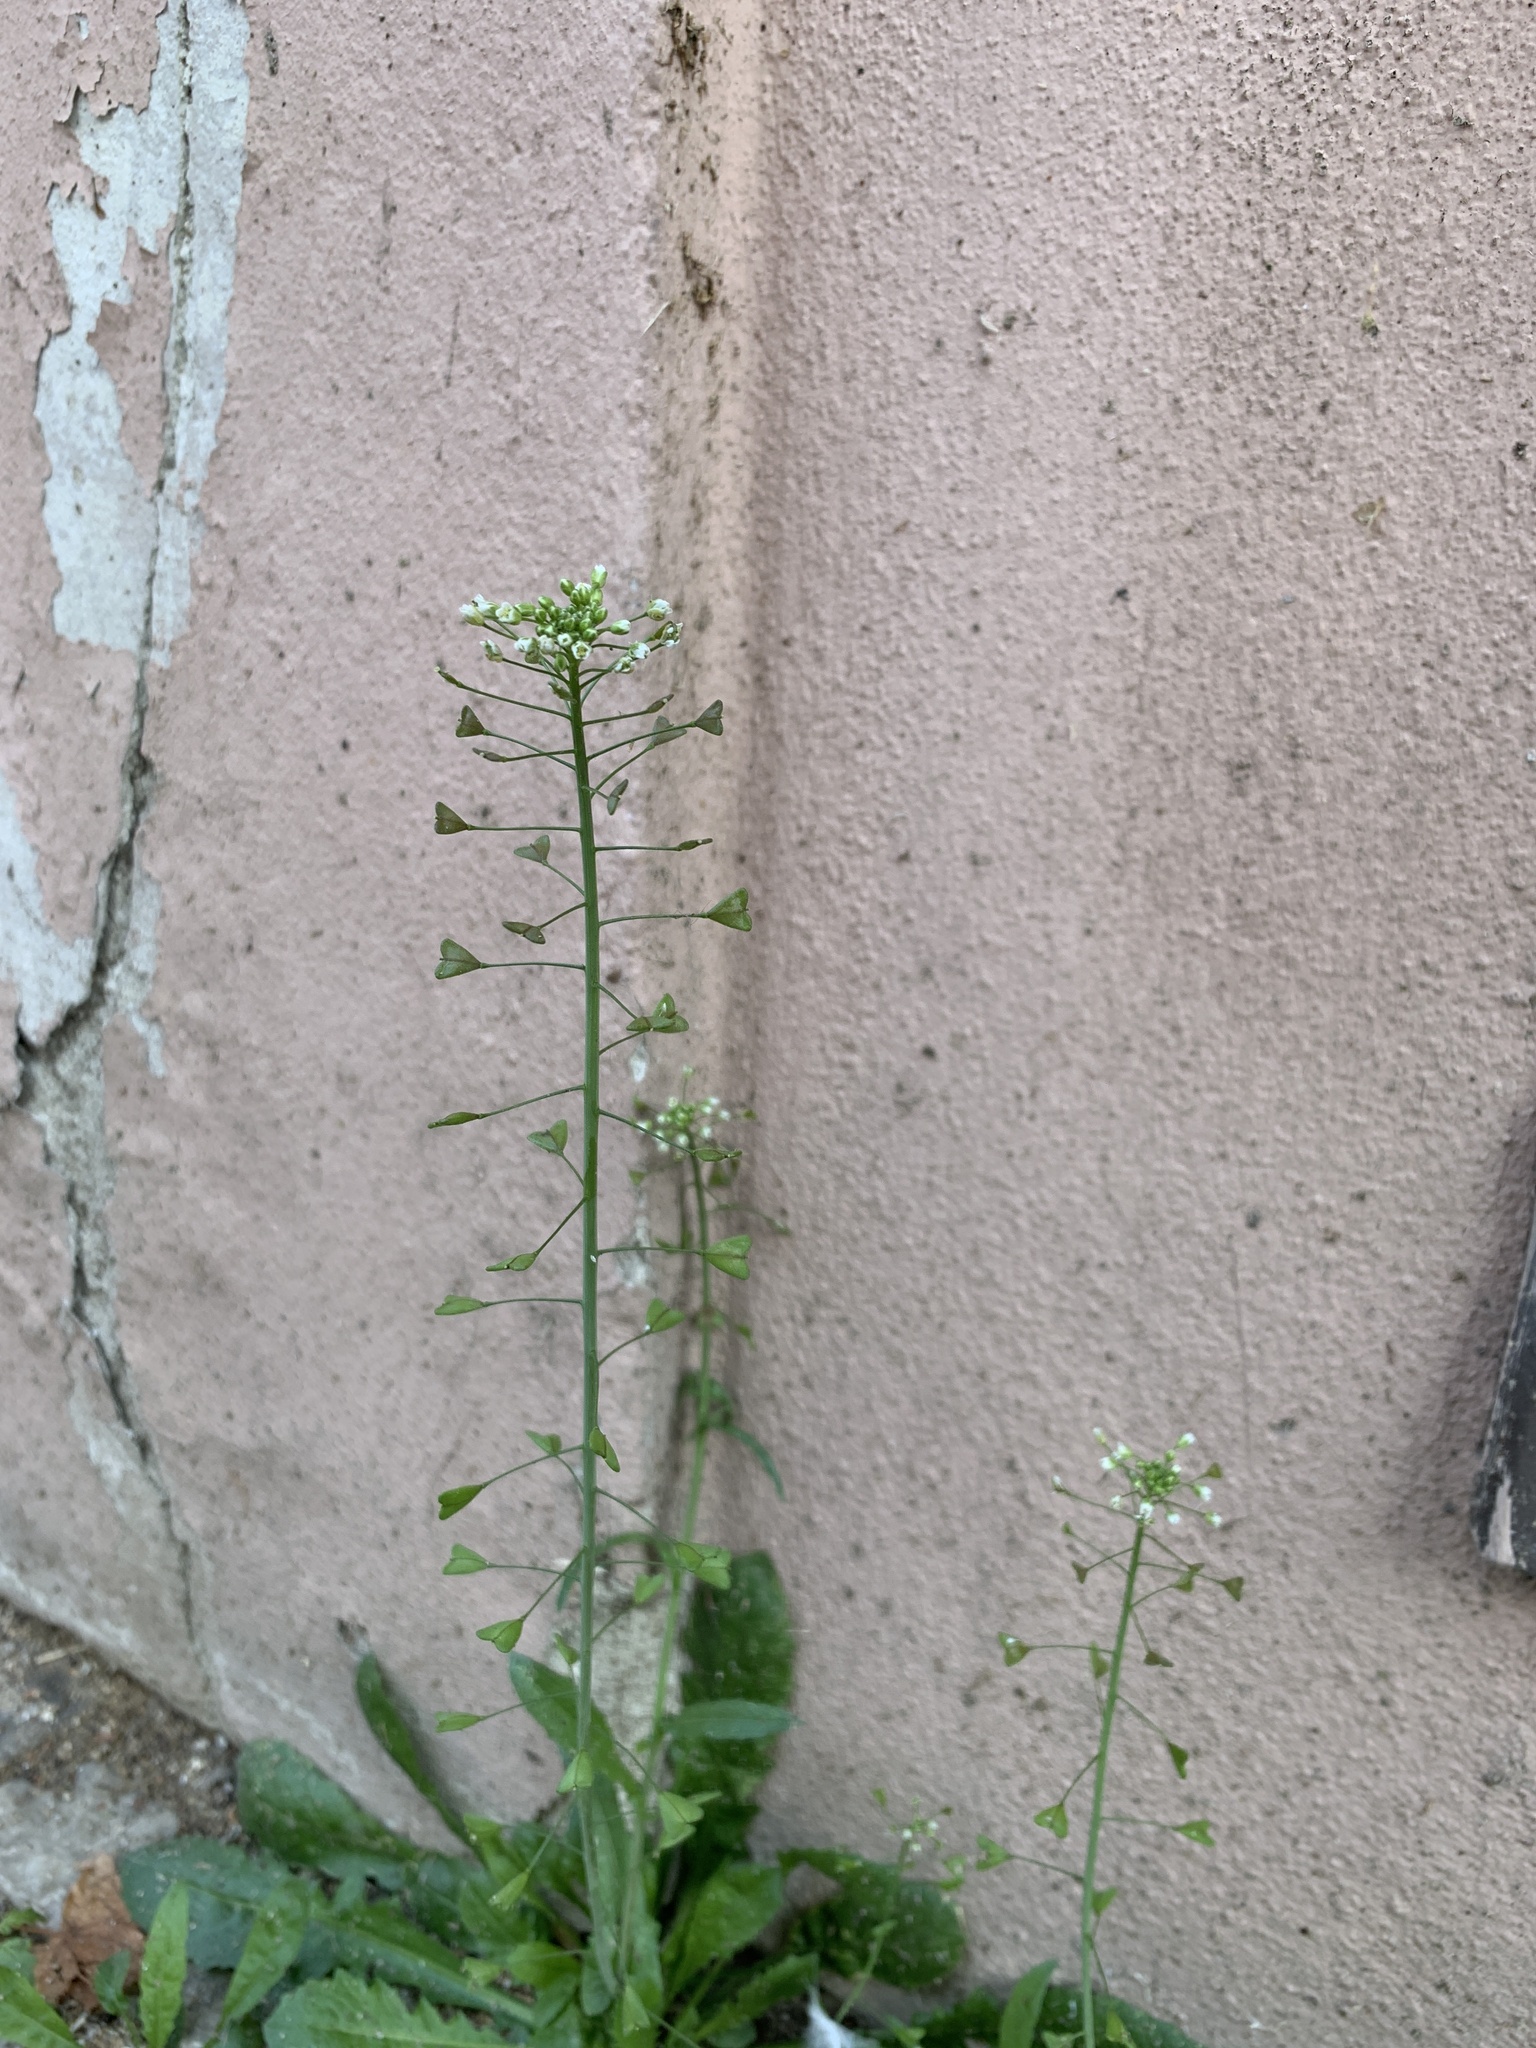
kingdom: Plantae
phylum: Tracheophyta
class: Magnoliopsida
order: Brassicales
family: Brassicaceae
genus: Capsella
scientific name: Capsella bursa-pastoris
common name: Shepherd's purse
